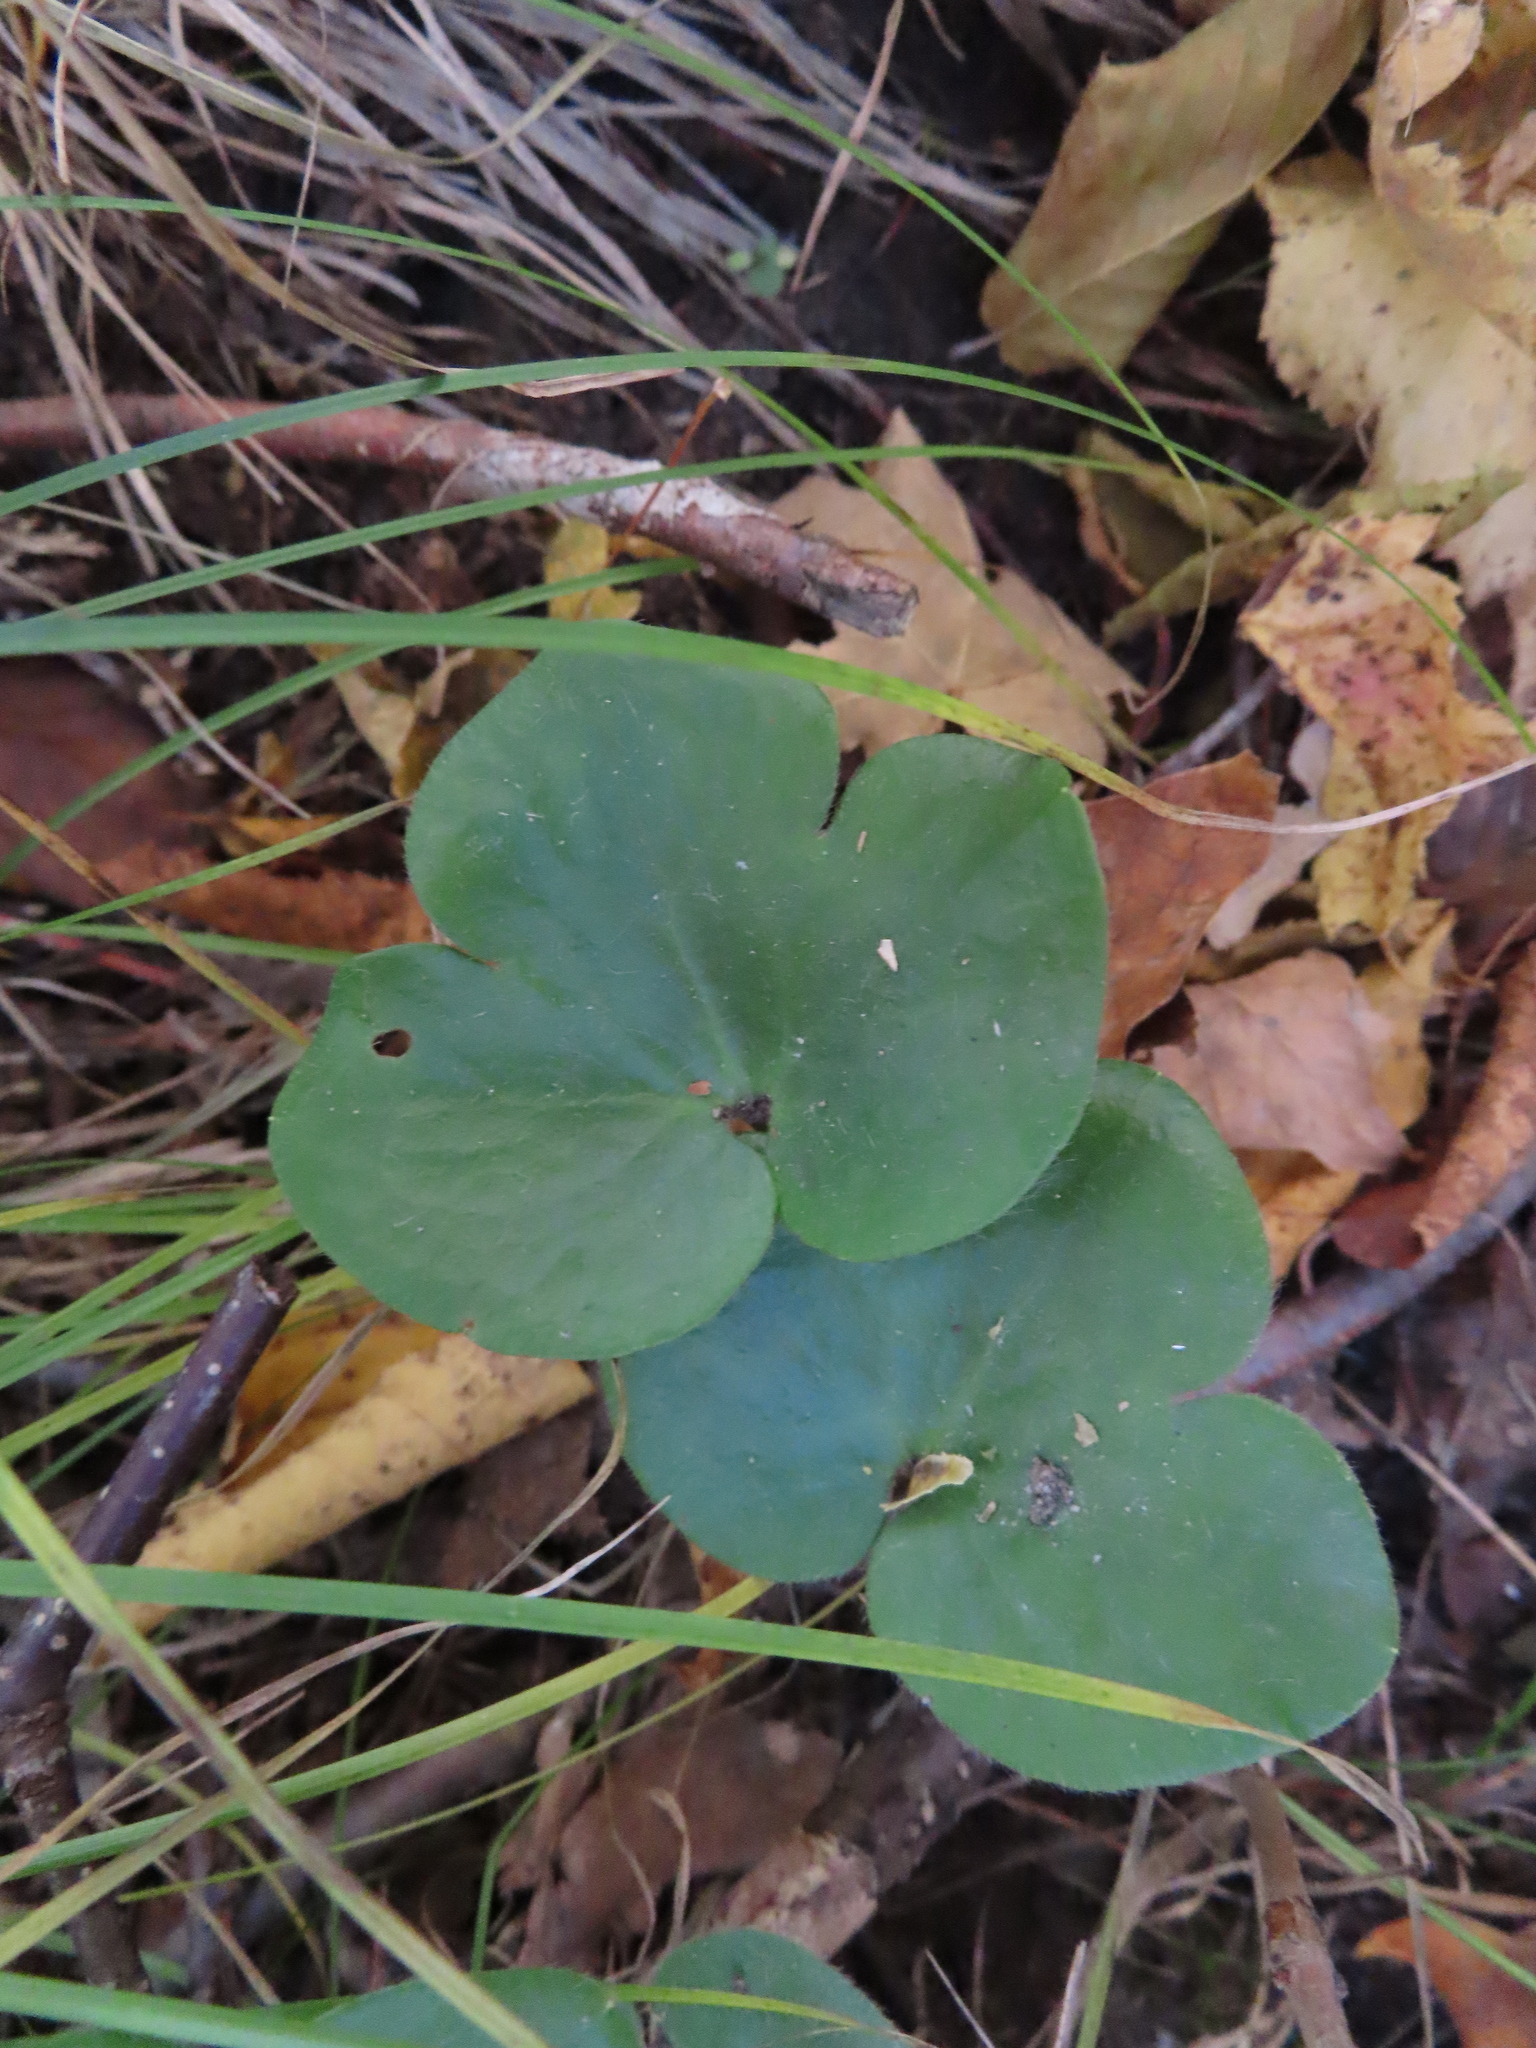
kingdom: Plantae
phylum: Tracheophyta
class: Magnoliopsida
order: Ranunculales
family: Ranunculaceae
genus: Hepatica
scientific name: Hepatica americana
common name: American hepatica
